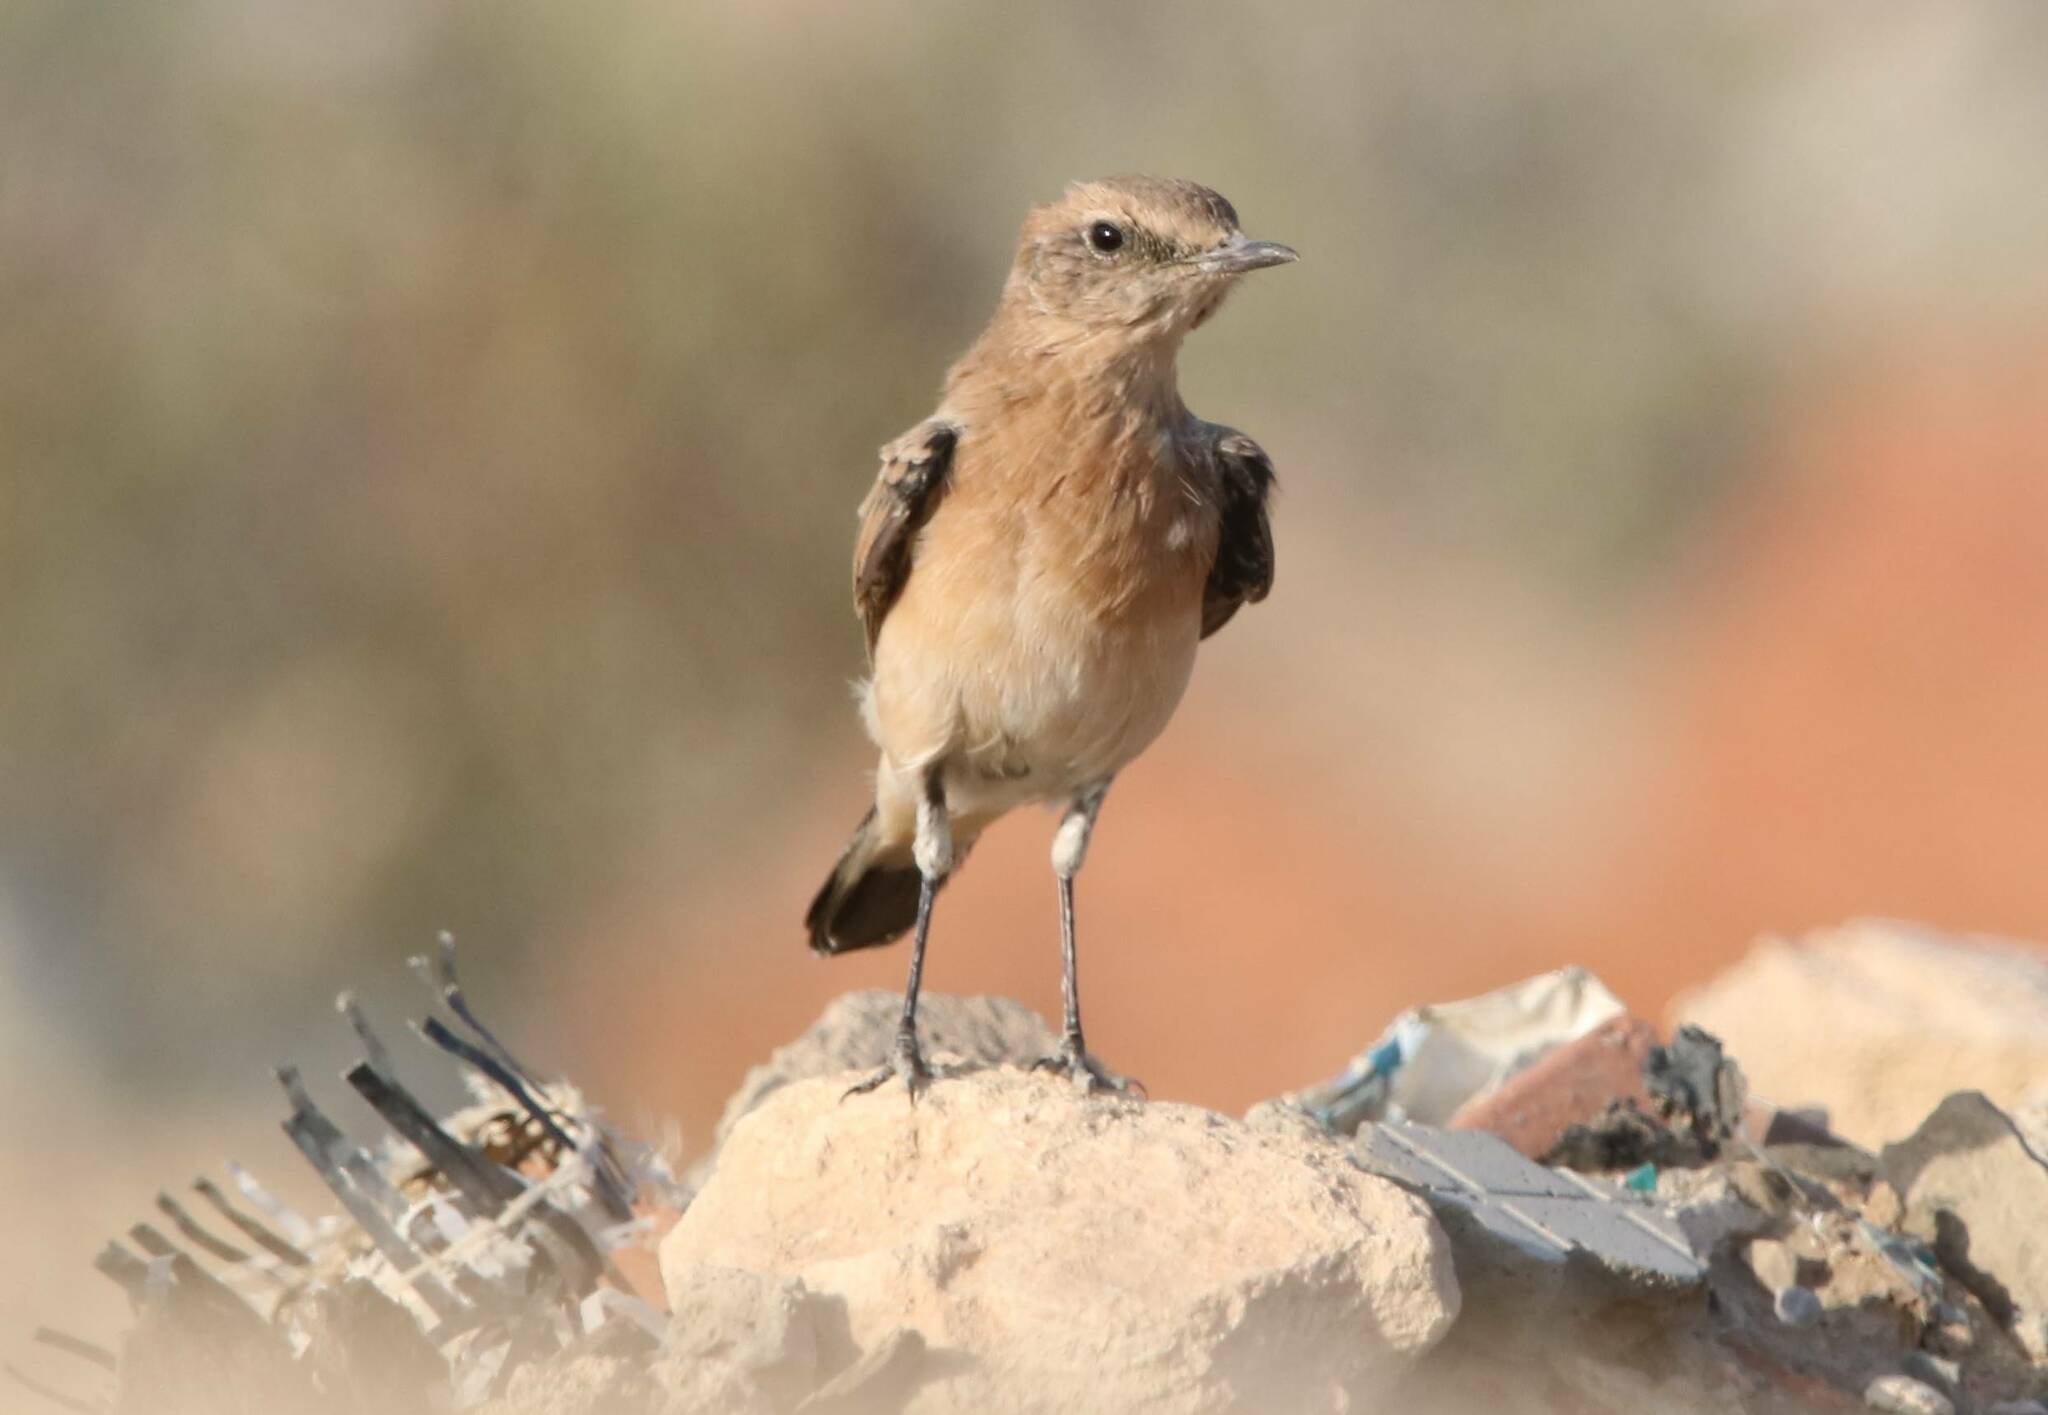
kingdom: Animalia
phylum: Chordata
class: Aves
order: Passeriformes
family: Muscicapidae
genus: Oenanthe
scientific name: Oenanthe hispanica
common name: Black-eared wheatear
